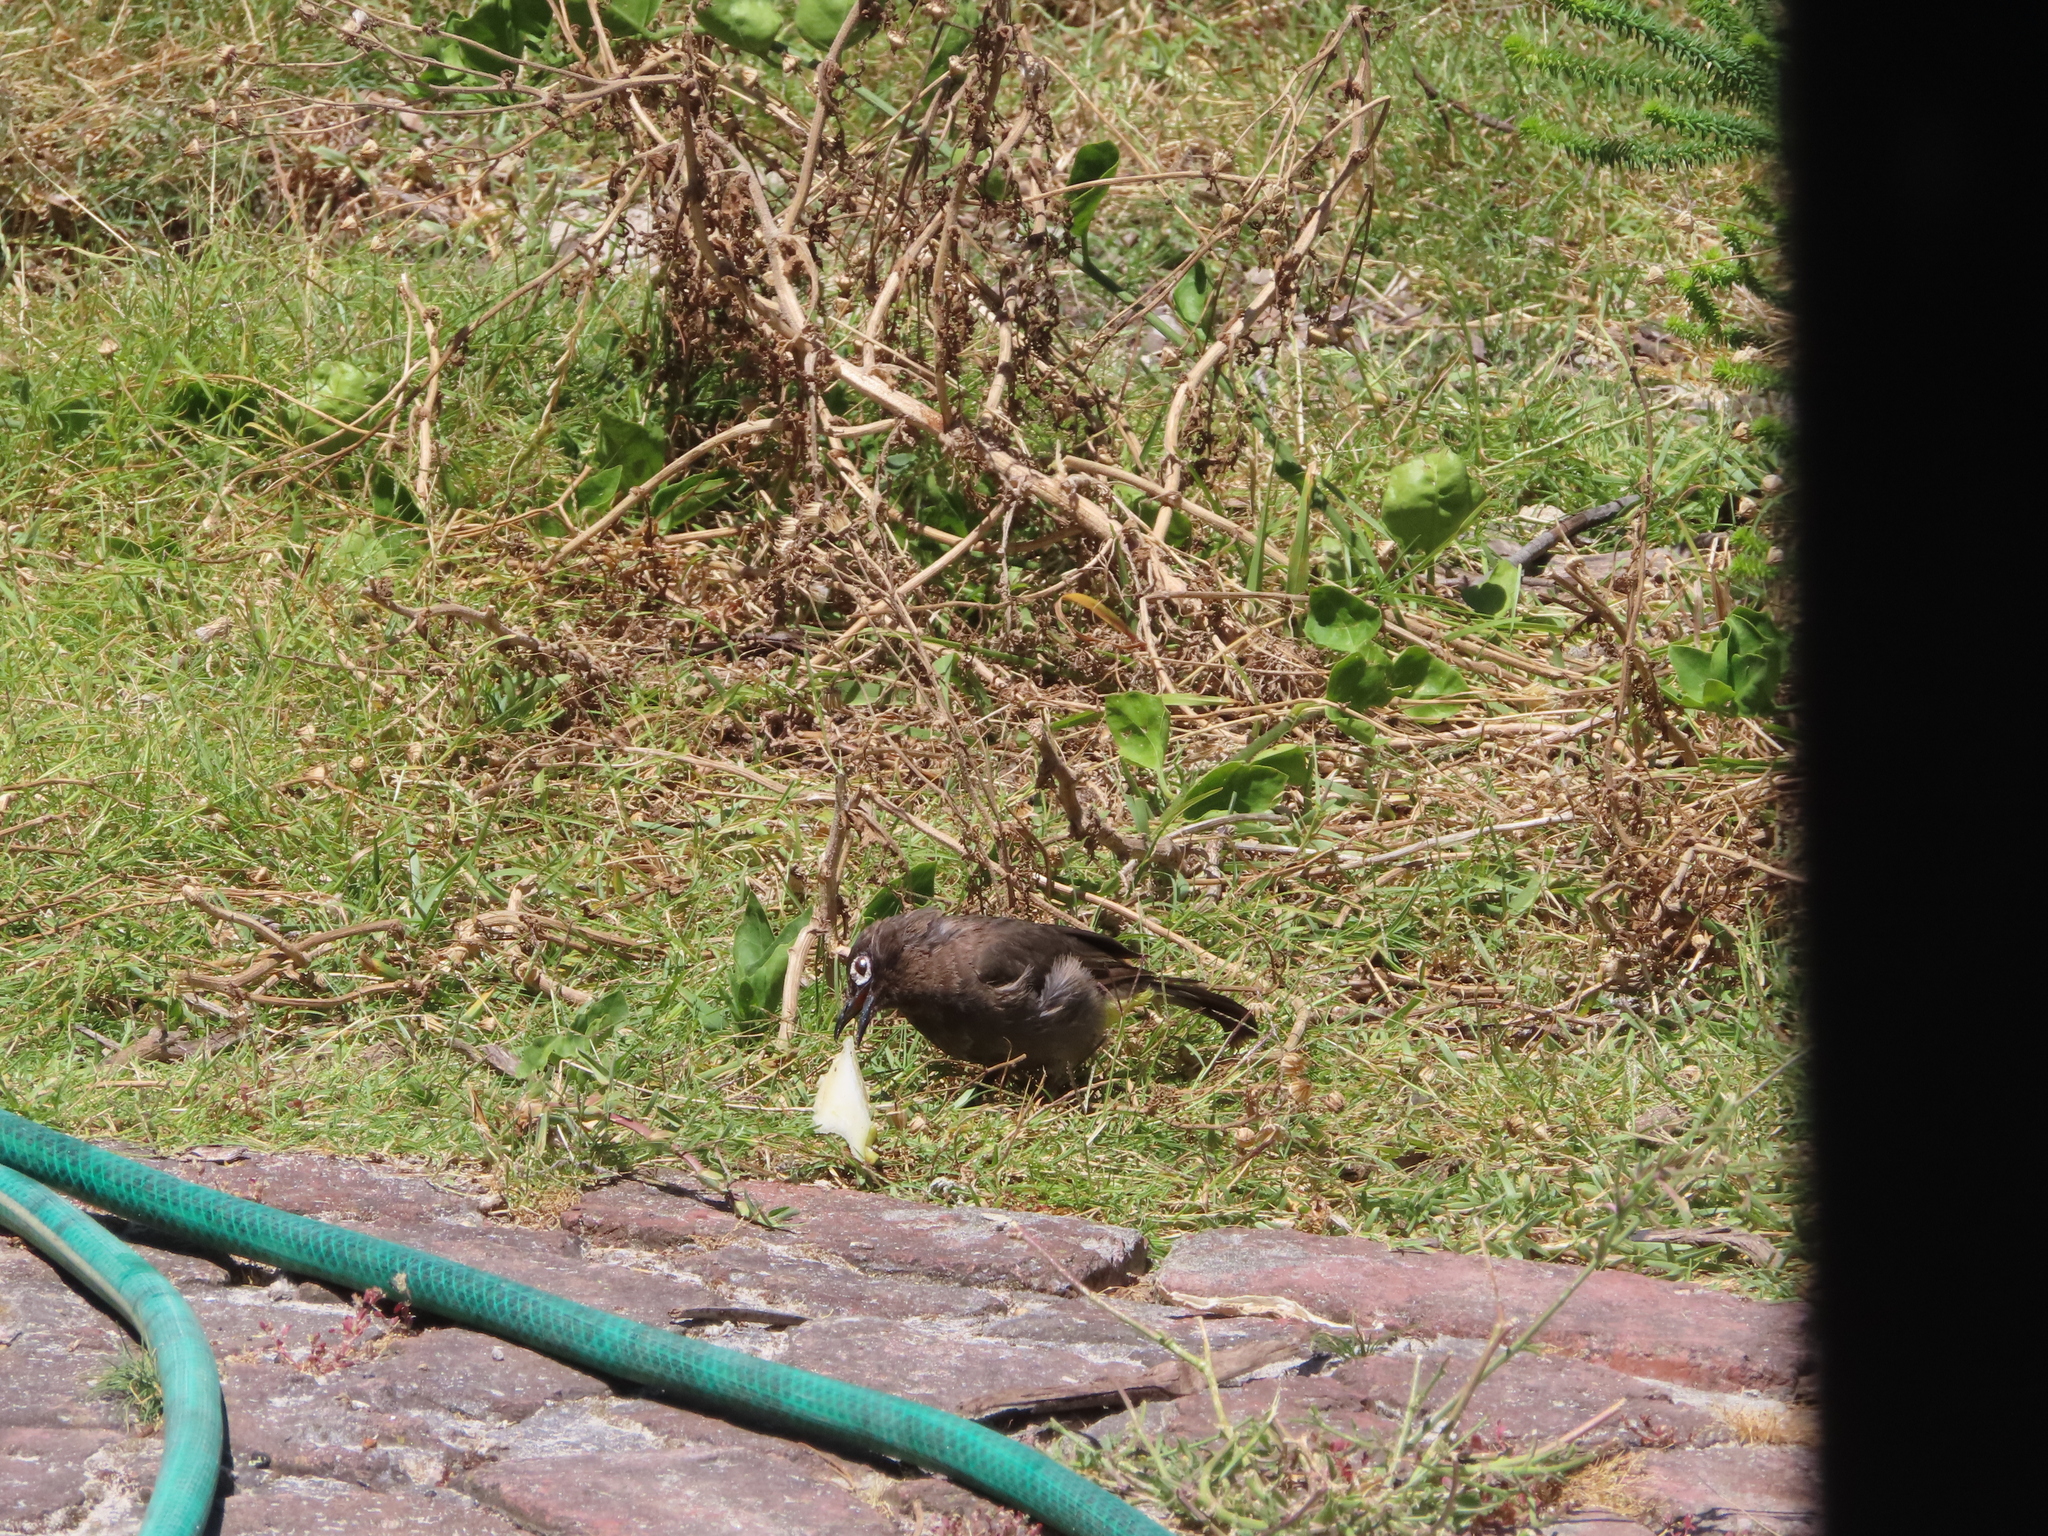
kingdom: Animalia
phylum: Chordata
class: Aves
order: Passeriformes
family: Pycnonotidae
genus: Pycnonotus
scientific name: Pycnonotus capensis
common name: Cape bulbul
